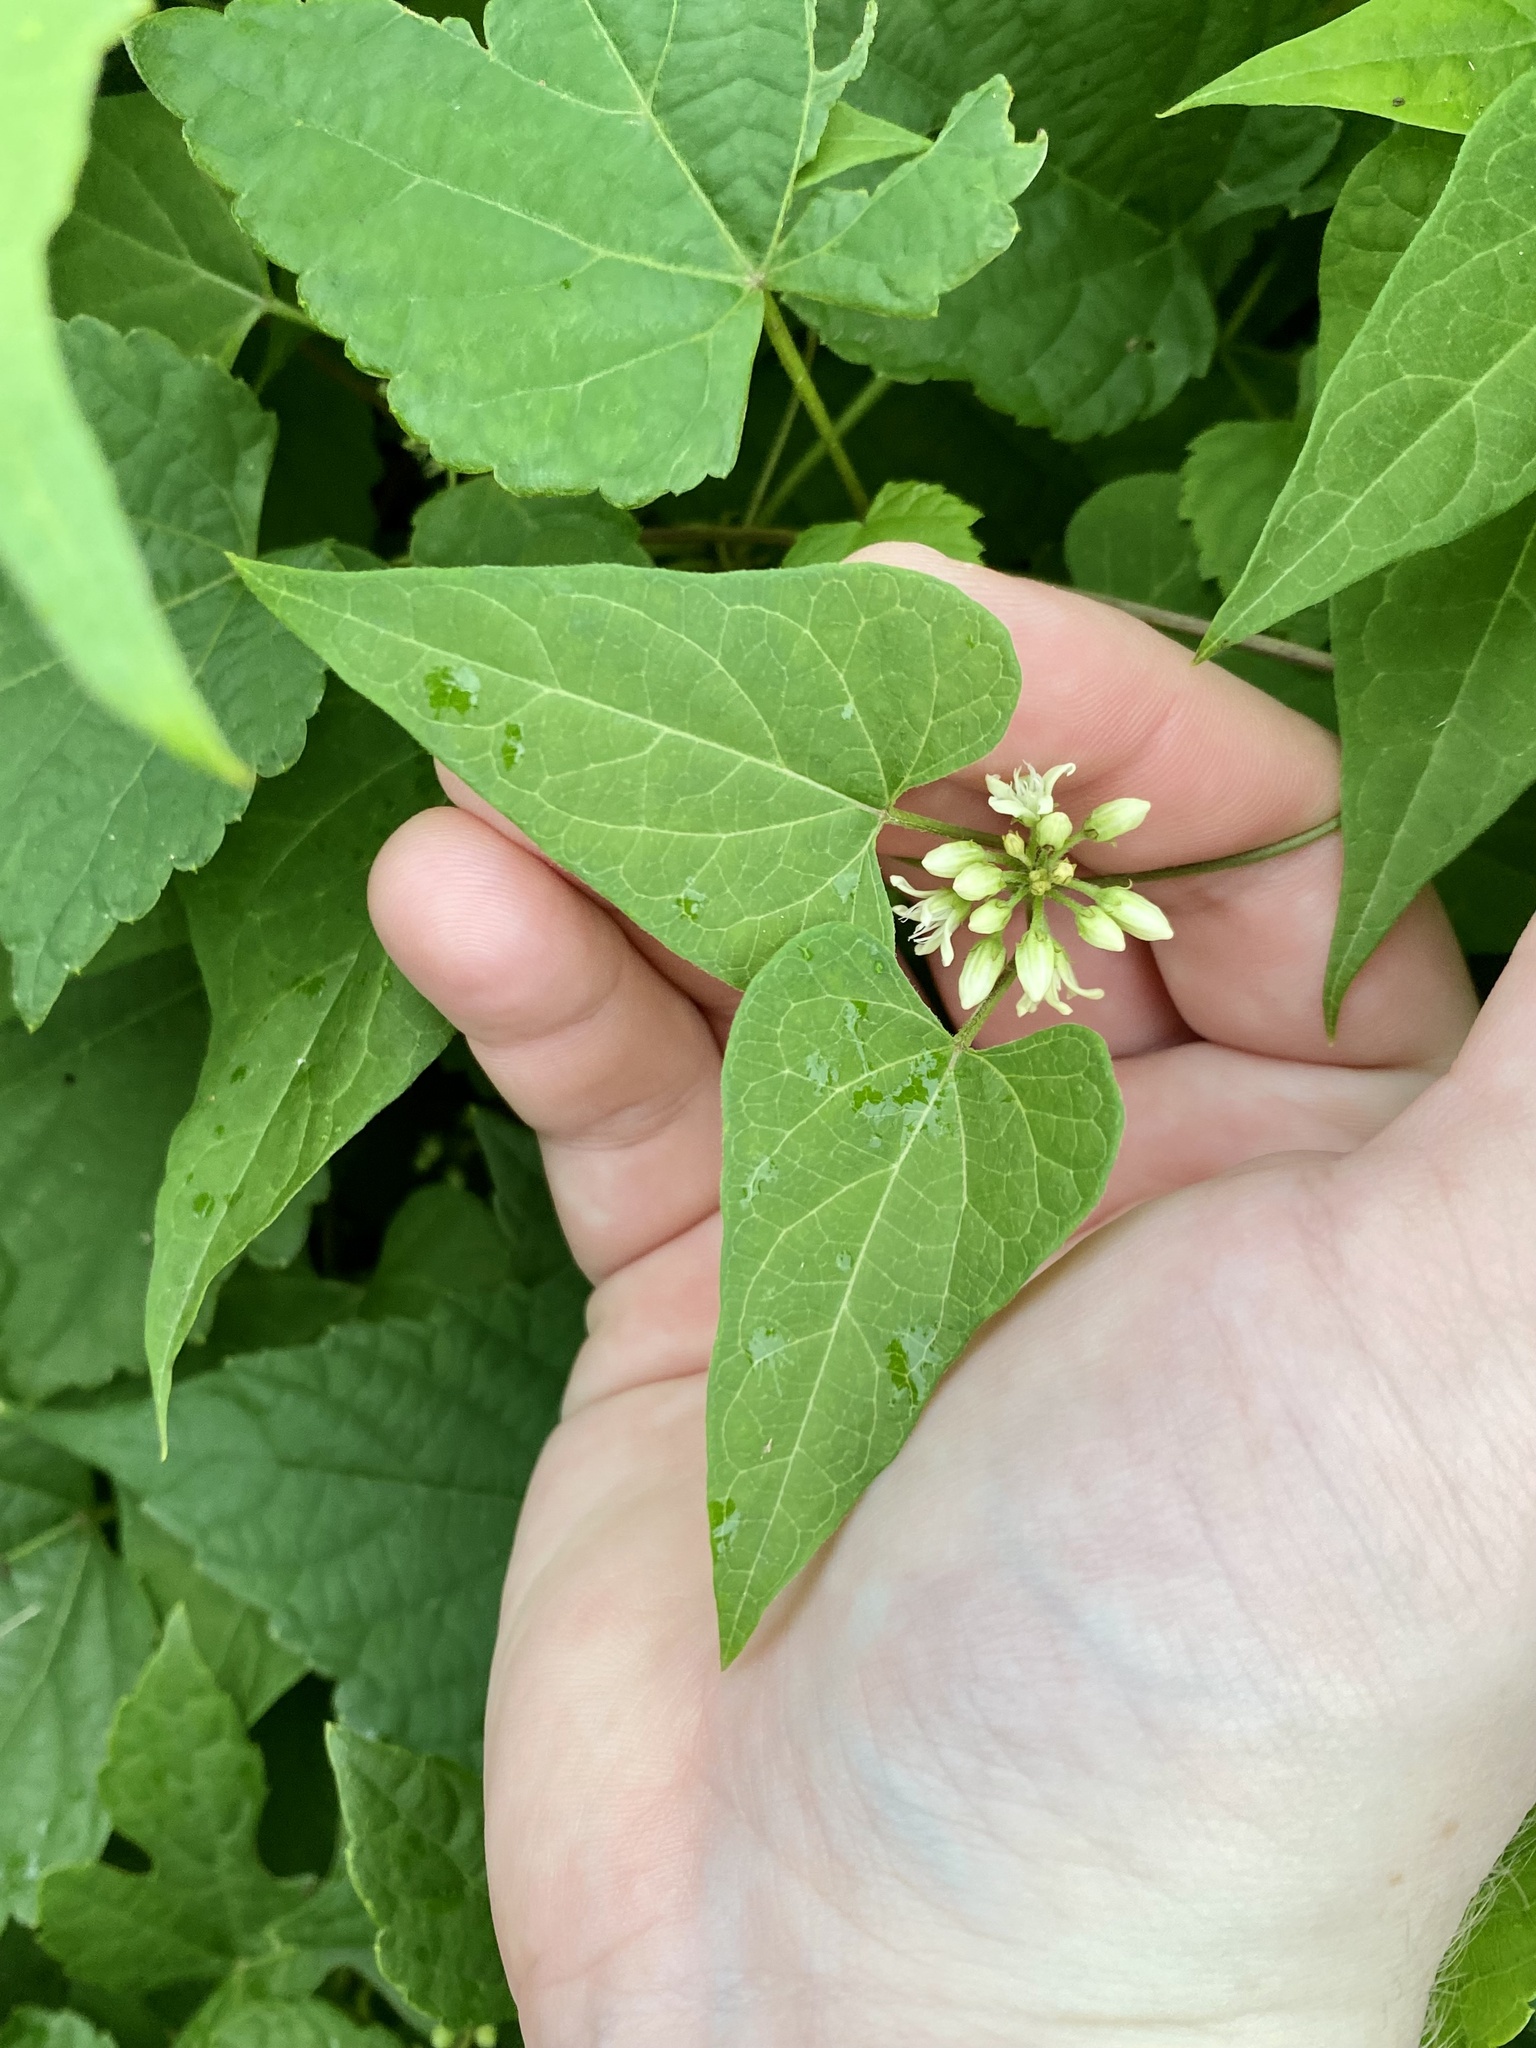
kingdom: Plantae
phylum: Tracheophyta
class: Magnoliopsida
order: Gentianales
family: Apocynaceae
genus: Cynanchum
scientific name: Cynanchum laeve
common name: Sandvine
